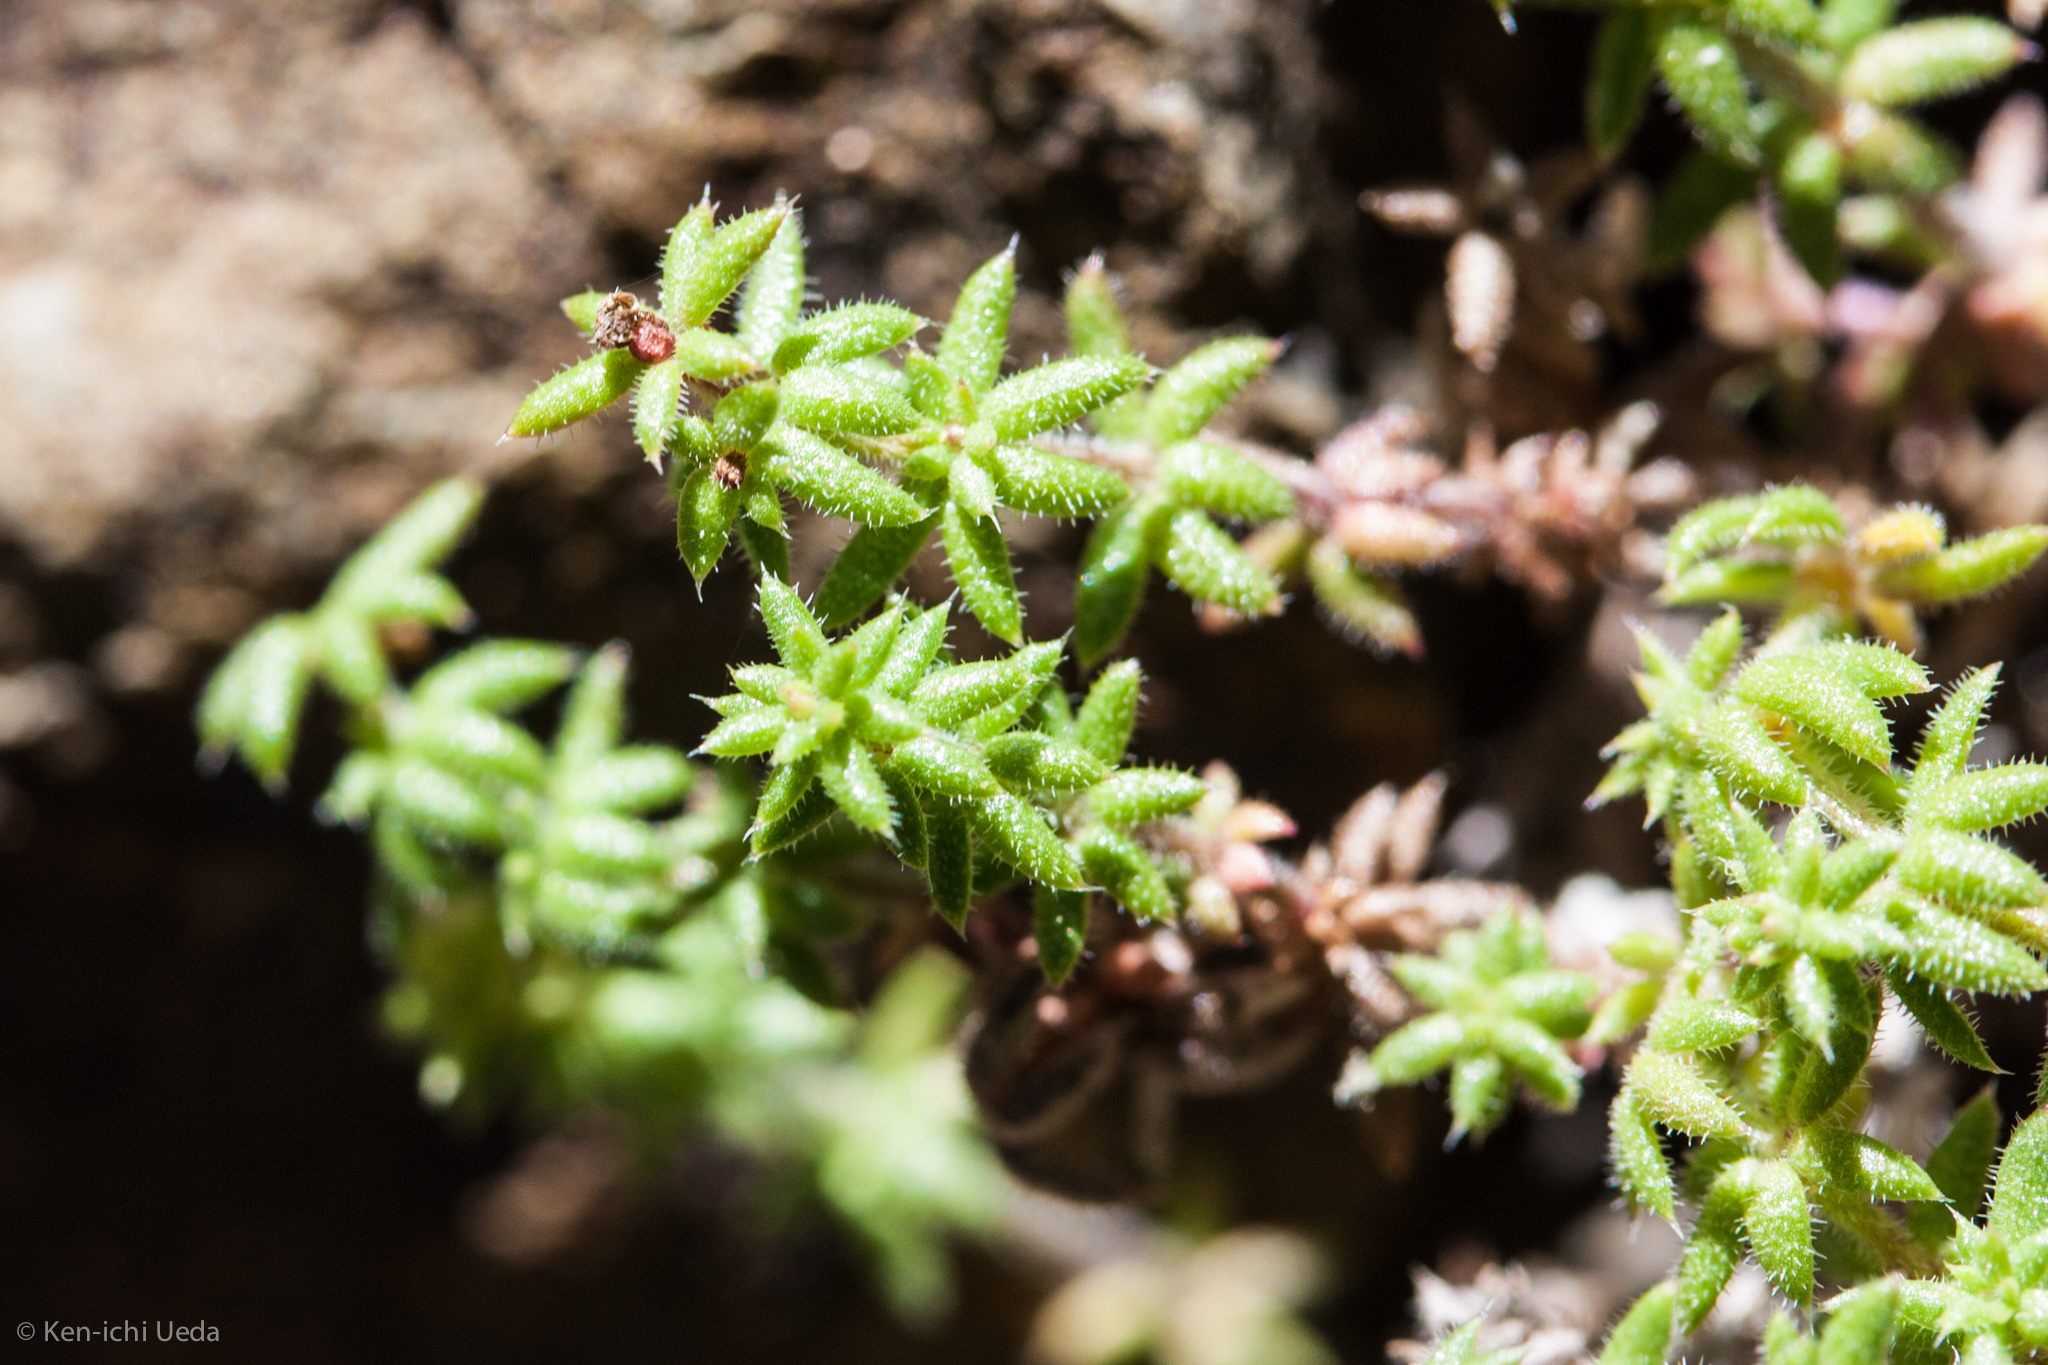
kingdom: Plantae
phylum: Tracheophyta
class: Magnoliopsida
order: Gentianales
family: Rubiaceae
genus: Galium
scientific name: Galium hardhamiae
